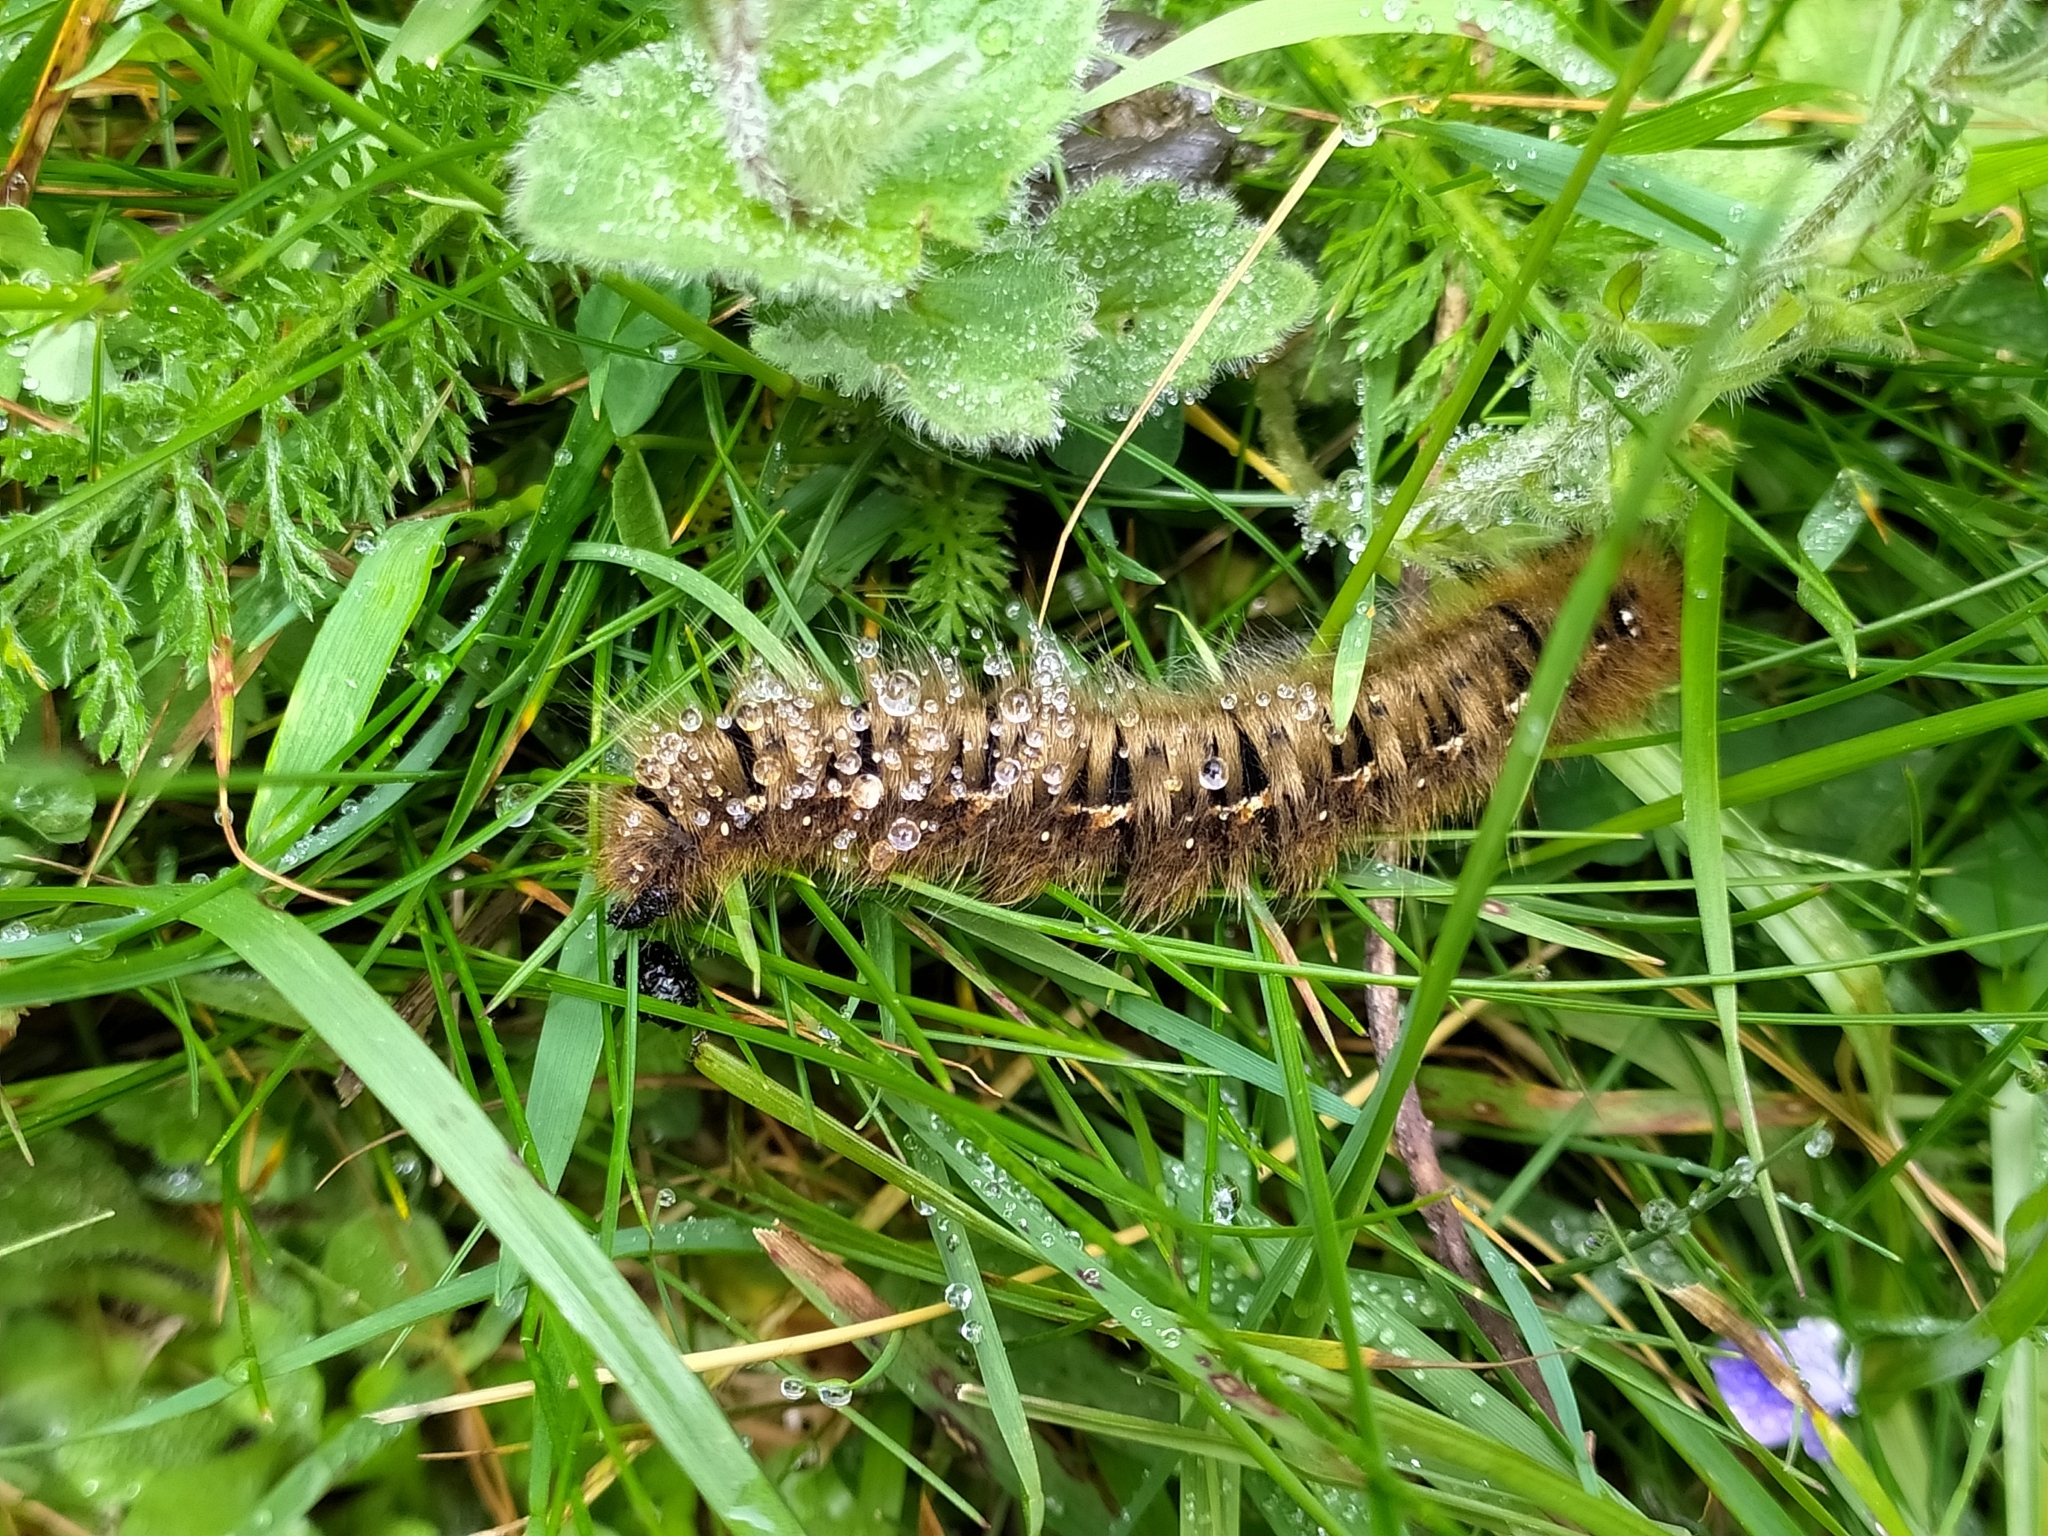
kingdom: Animalia
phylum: Arthropoda
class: Insecta
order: Lepidoptera
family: Lasiocampidae
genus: Lasiocampa
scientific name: Lasiocampa quercus
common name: Oak eggar
